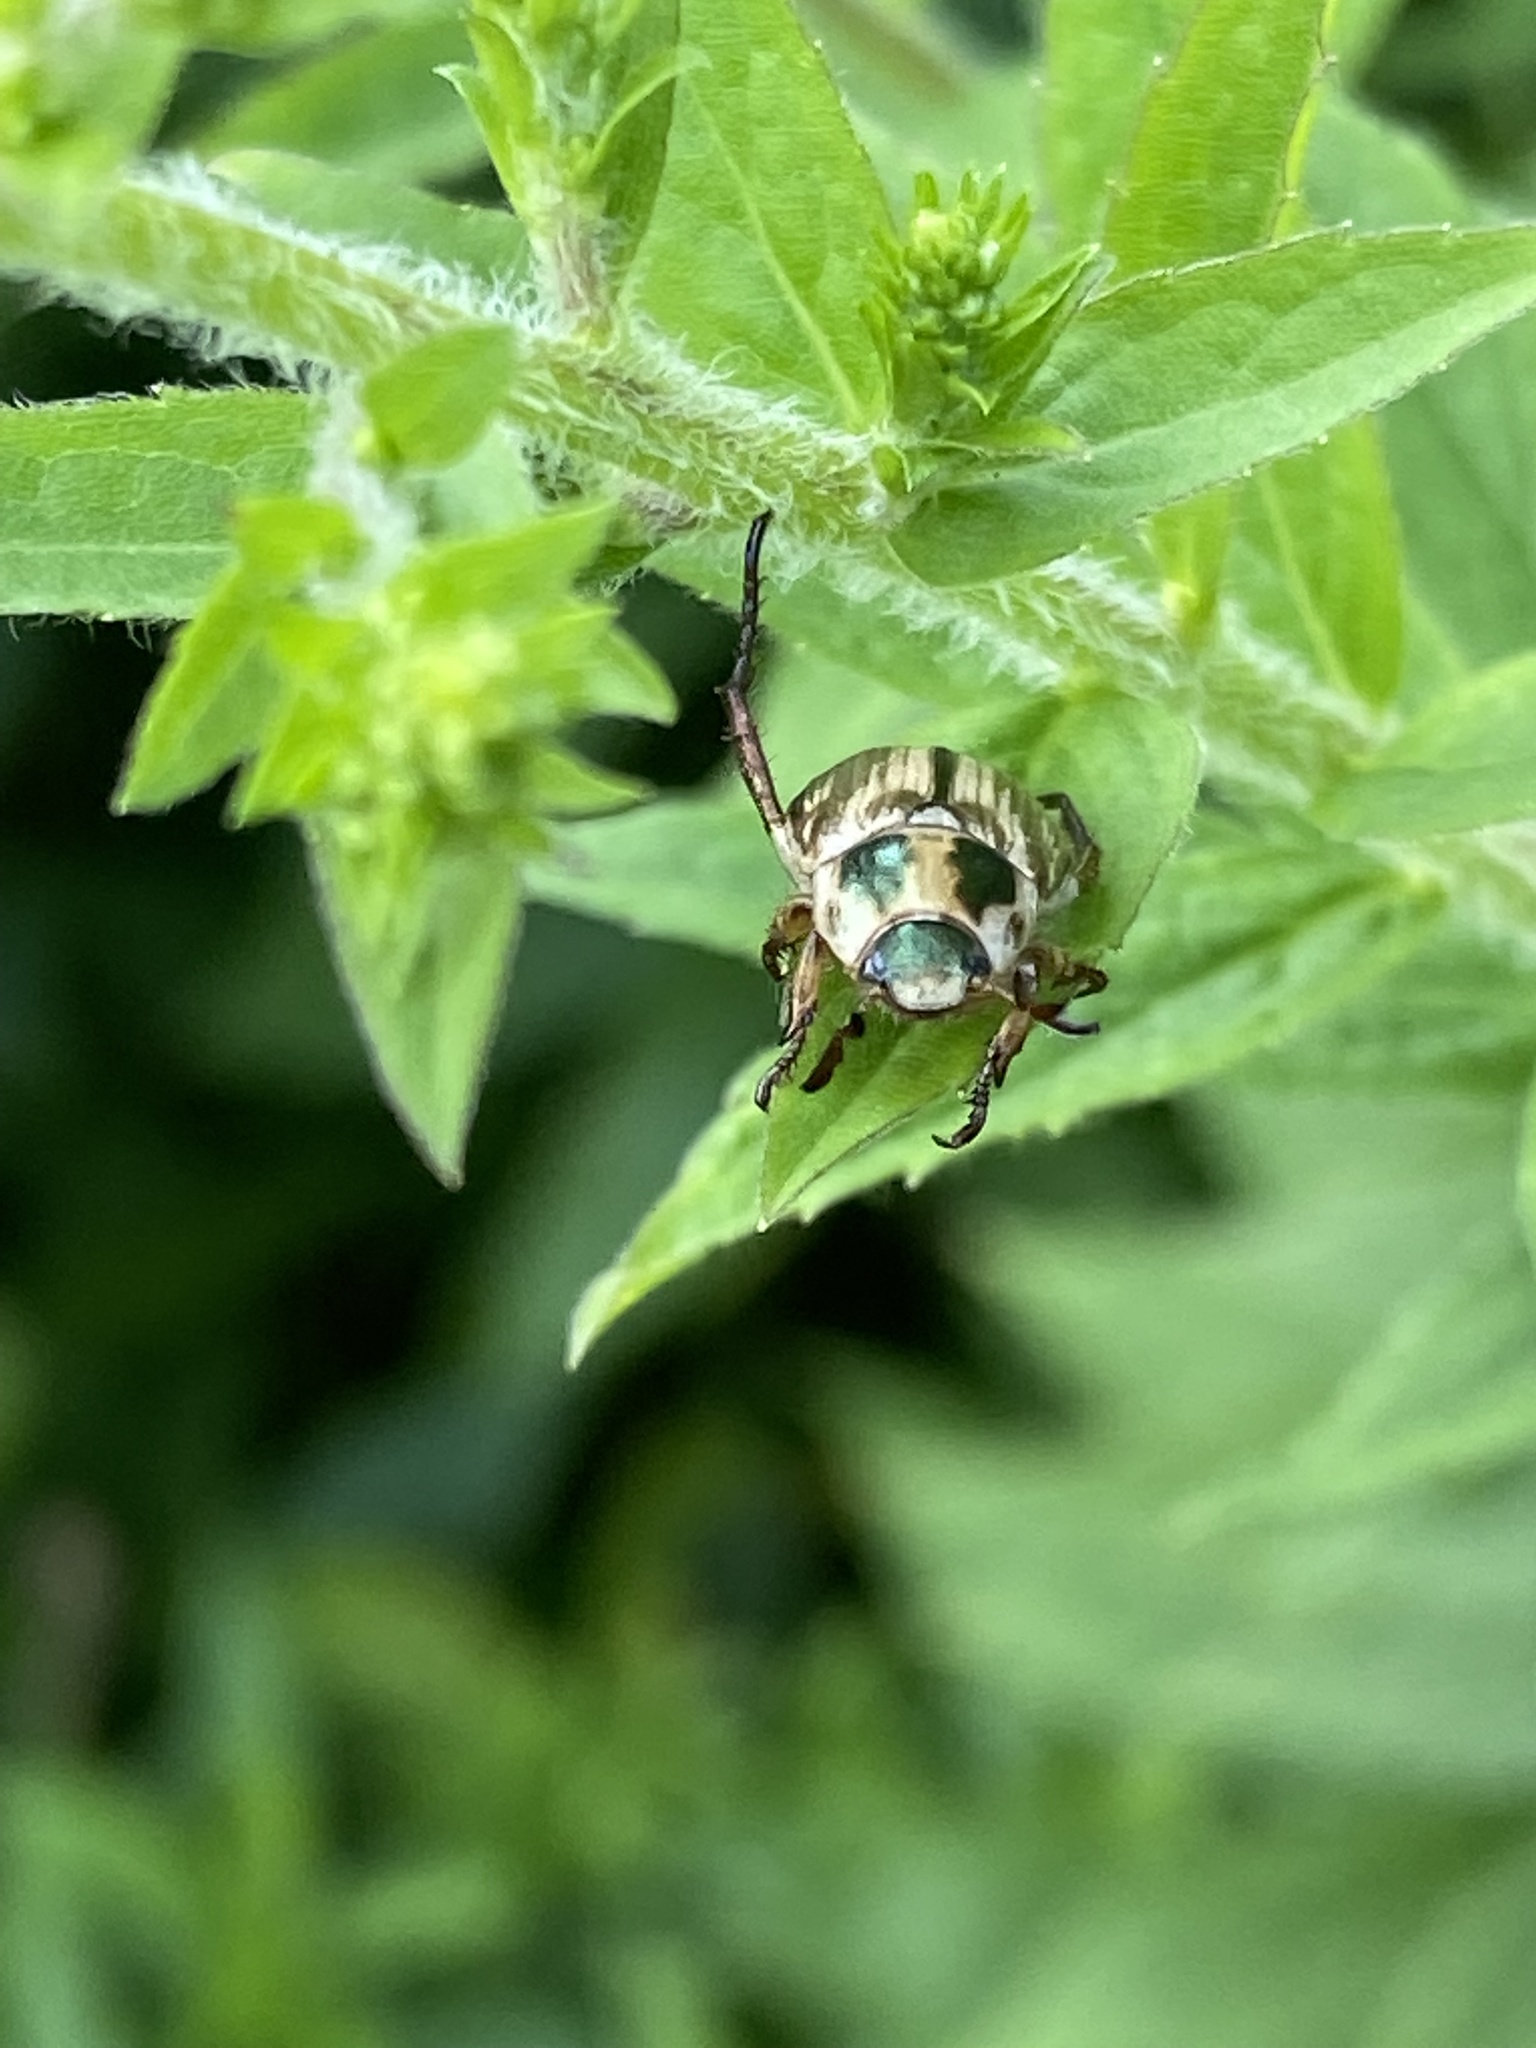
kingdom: Animalia
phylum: Arthropoda
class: Insecta
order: Coleoptera
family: Scarabaeidae
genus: Exomala
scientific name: Exomala orientalis
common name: Oriental beetle
